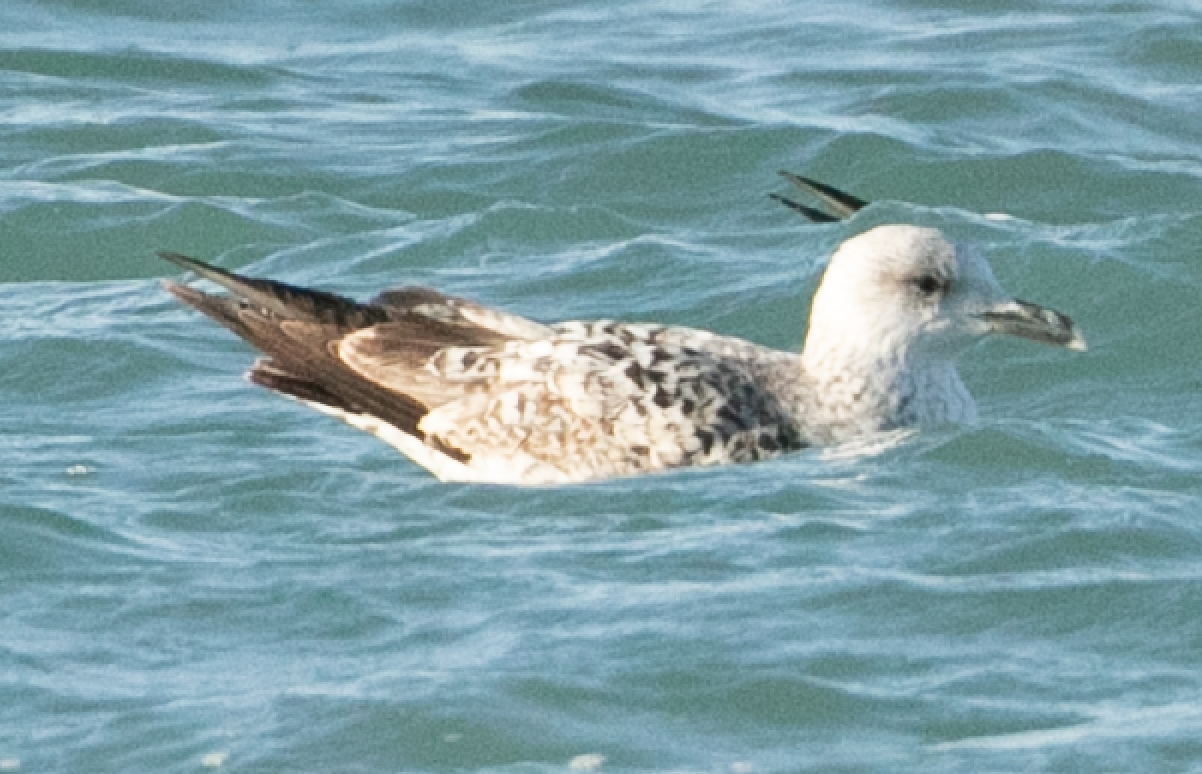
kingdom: Animalia
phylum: Chordata
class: Aves
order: Charadriiformes
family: Laridae
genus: Larus
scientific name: Larus michahellis
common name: Yellow-legged gull
